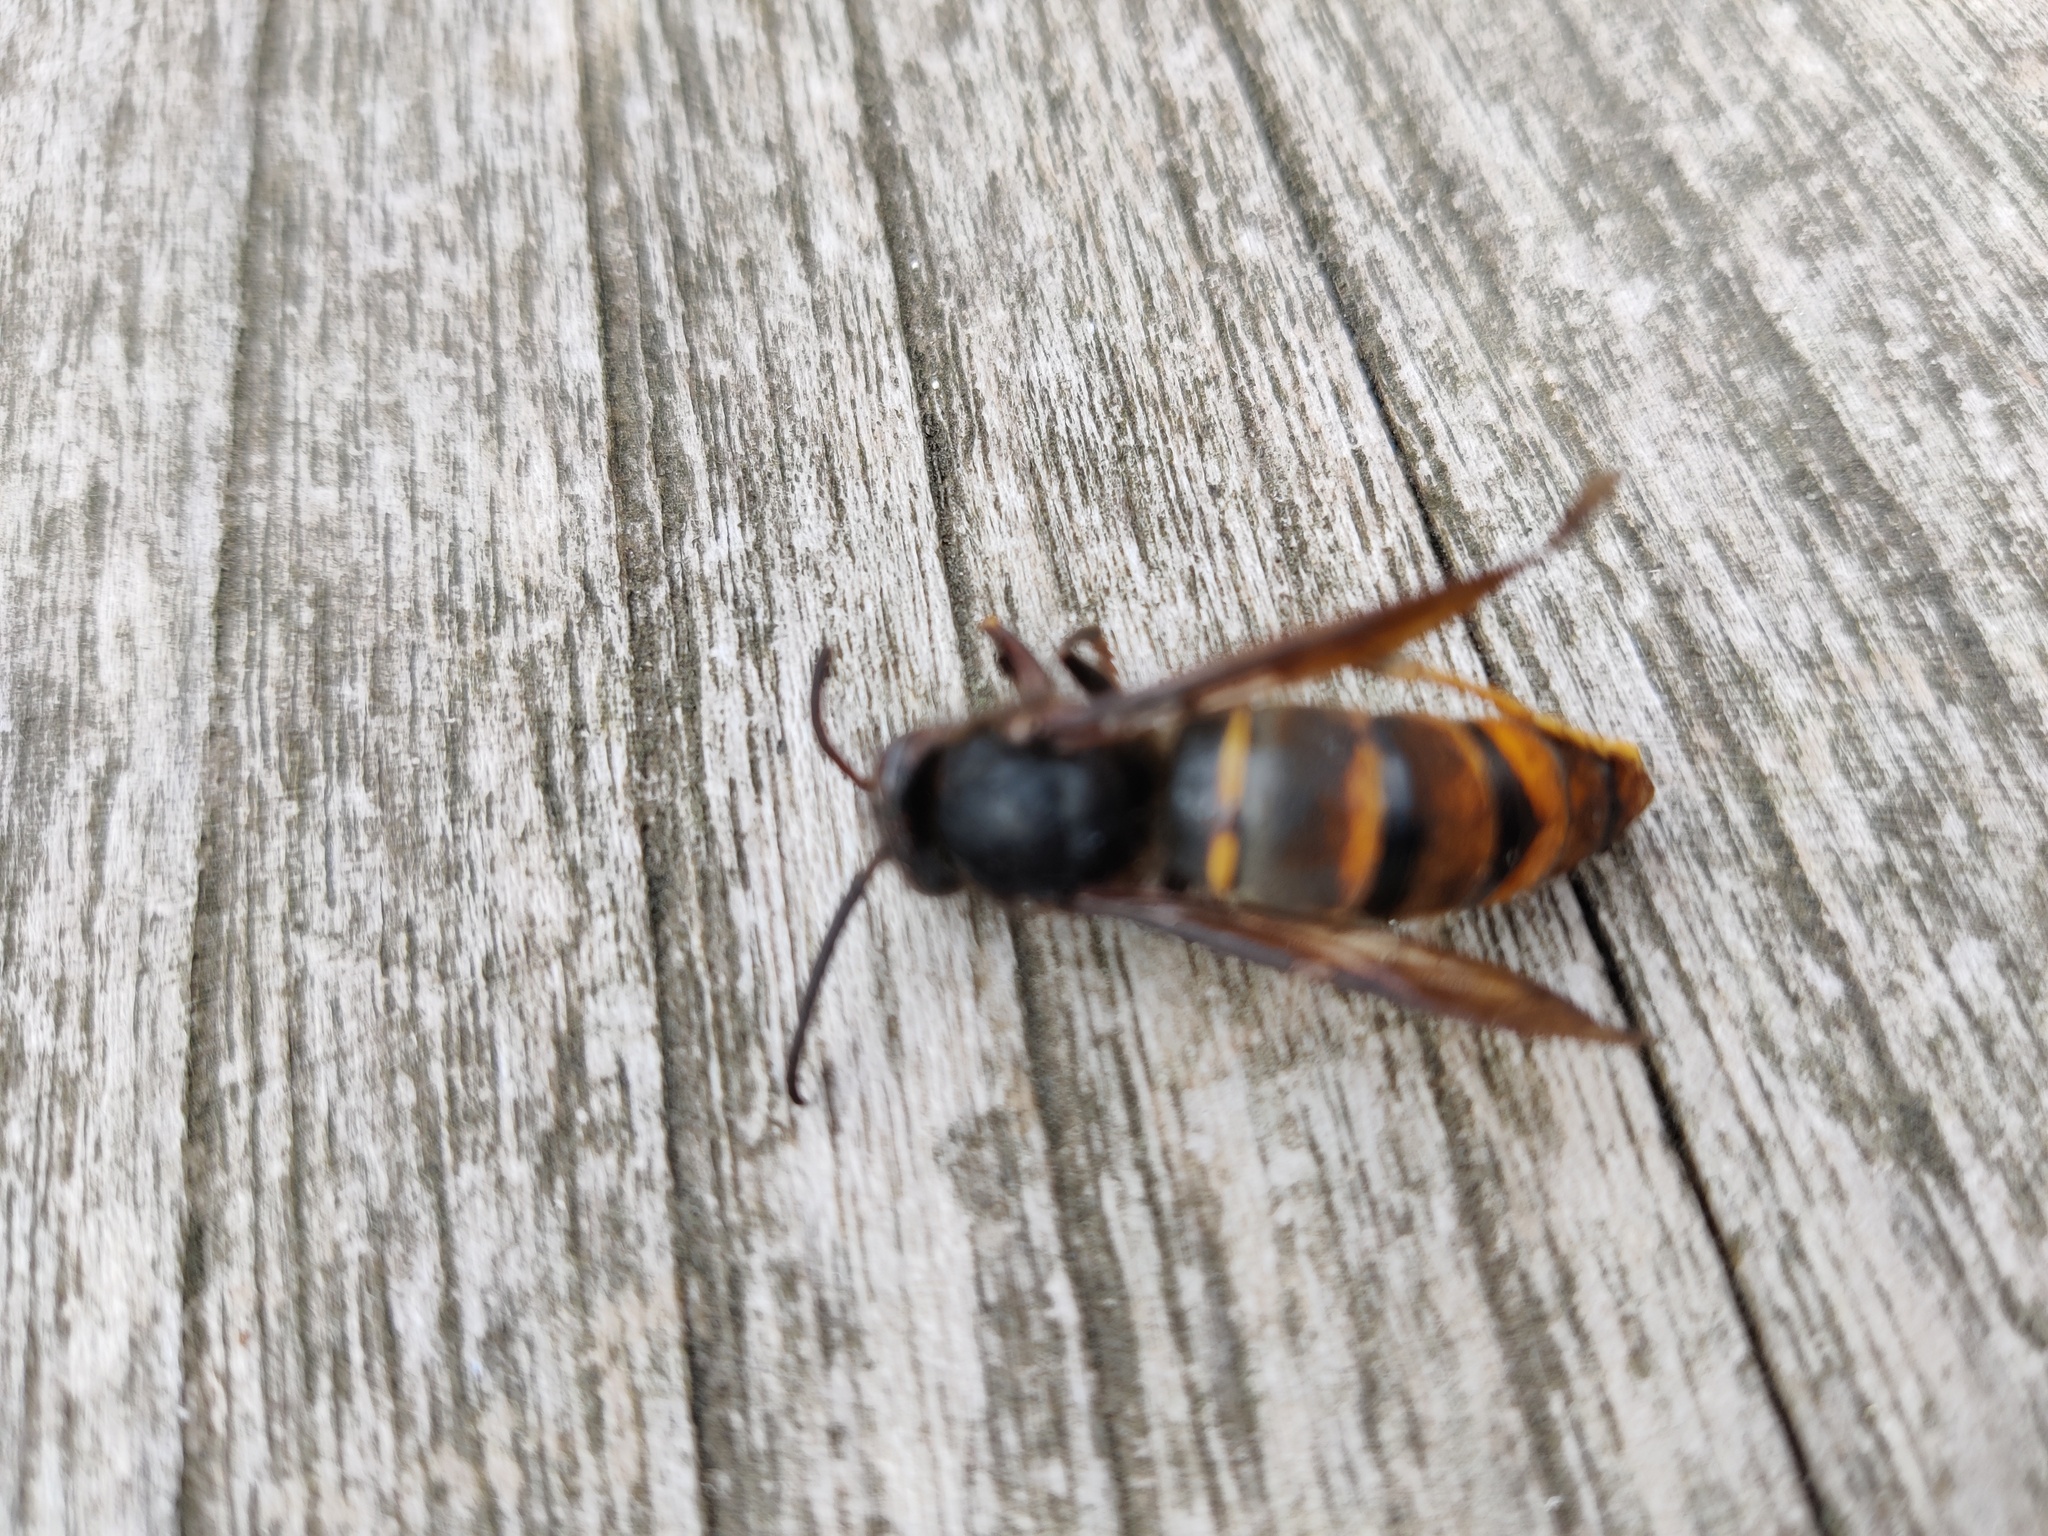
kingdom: Animalia
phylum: Arthropoda
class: Insecta
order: Hymenoptera
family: Vespidae
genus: Vespa
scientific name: Vespa velutina
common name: Asian hornet
